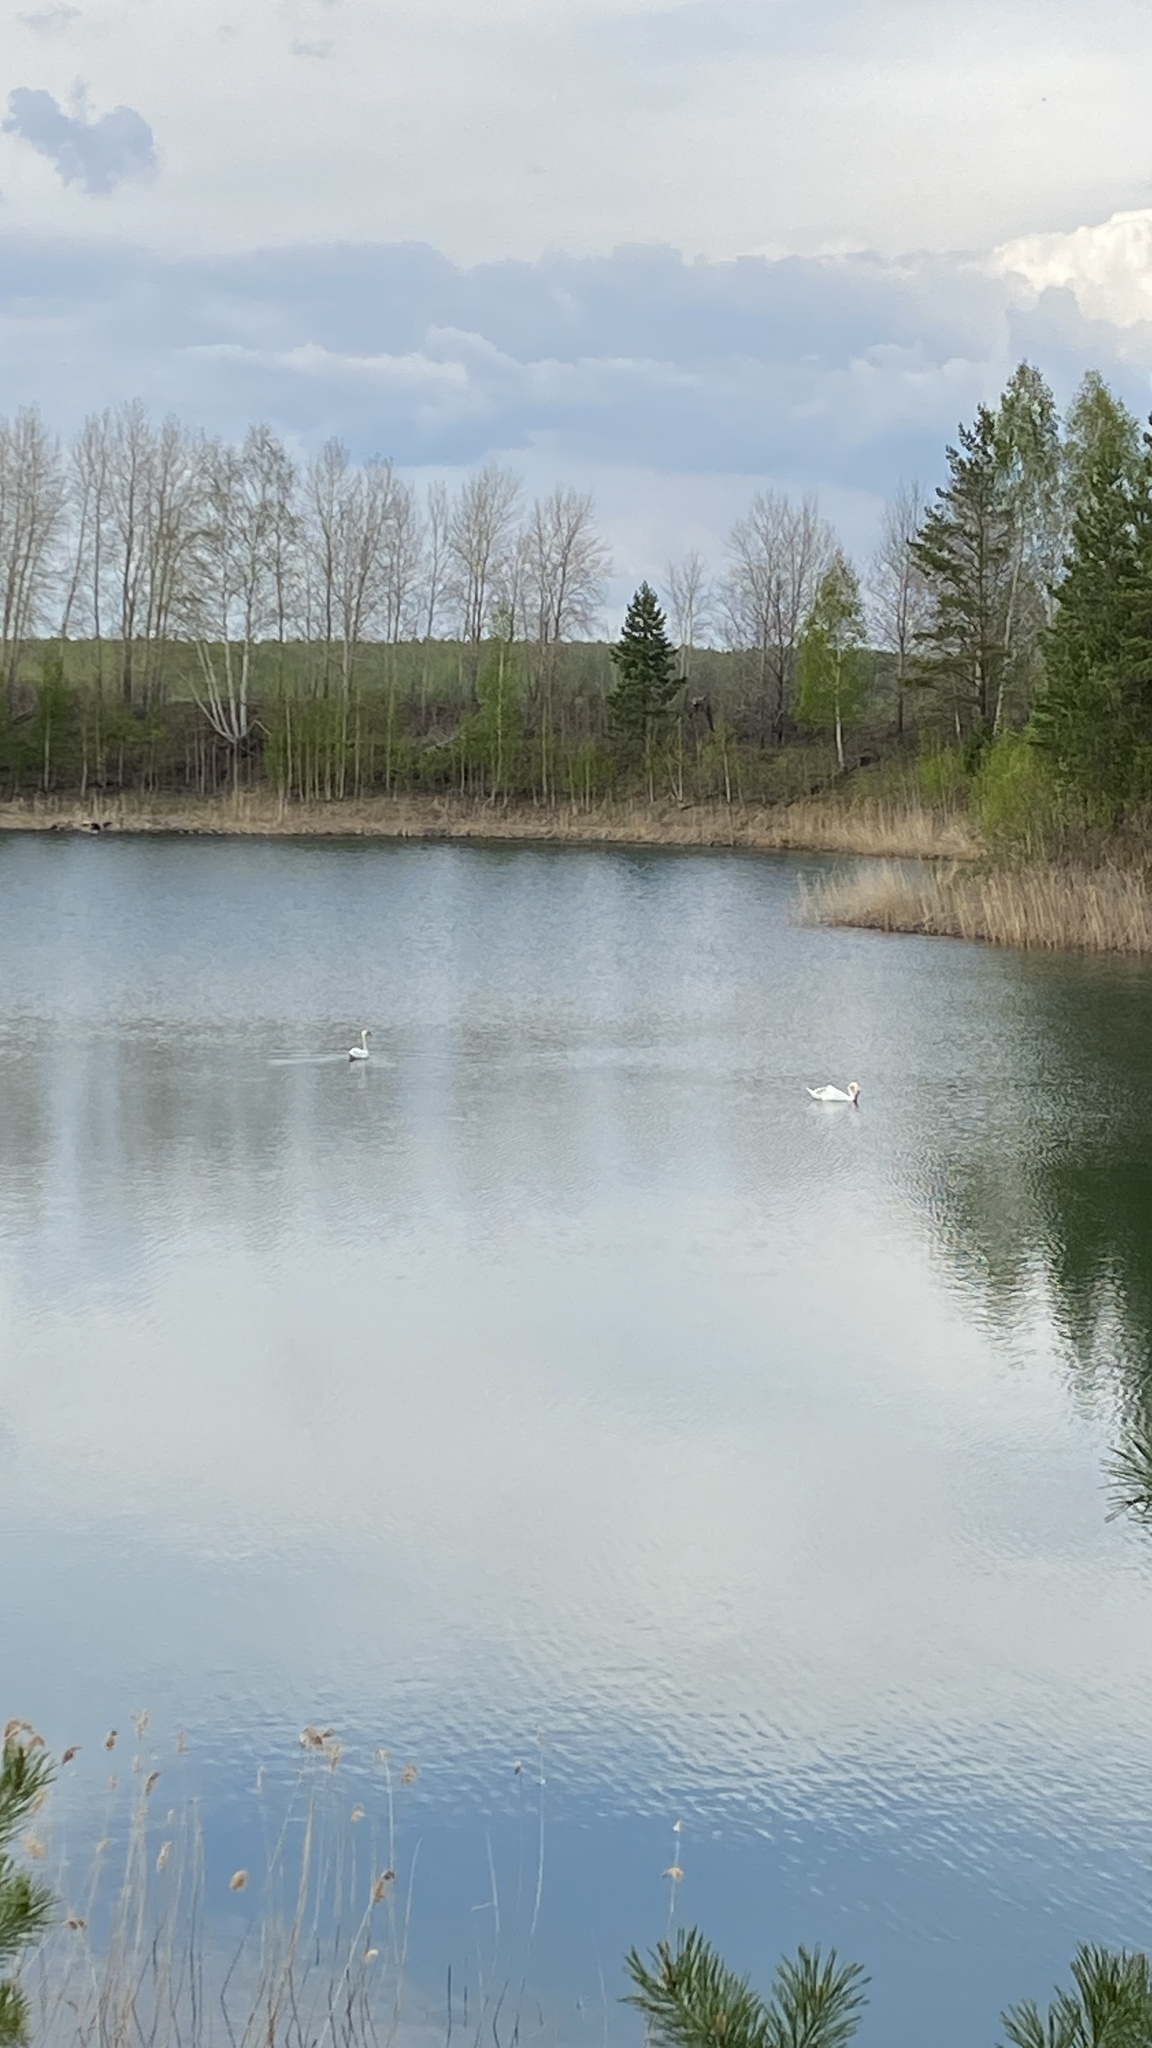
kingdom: Animalia
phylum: Chordata
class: Aves
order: Anseriformes
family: Anatidae
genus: Cygnus
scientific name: Cygnus olor
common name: Mute swan
